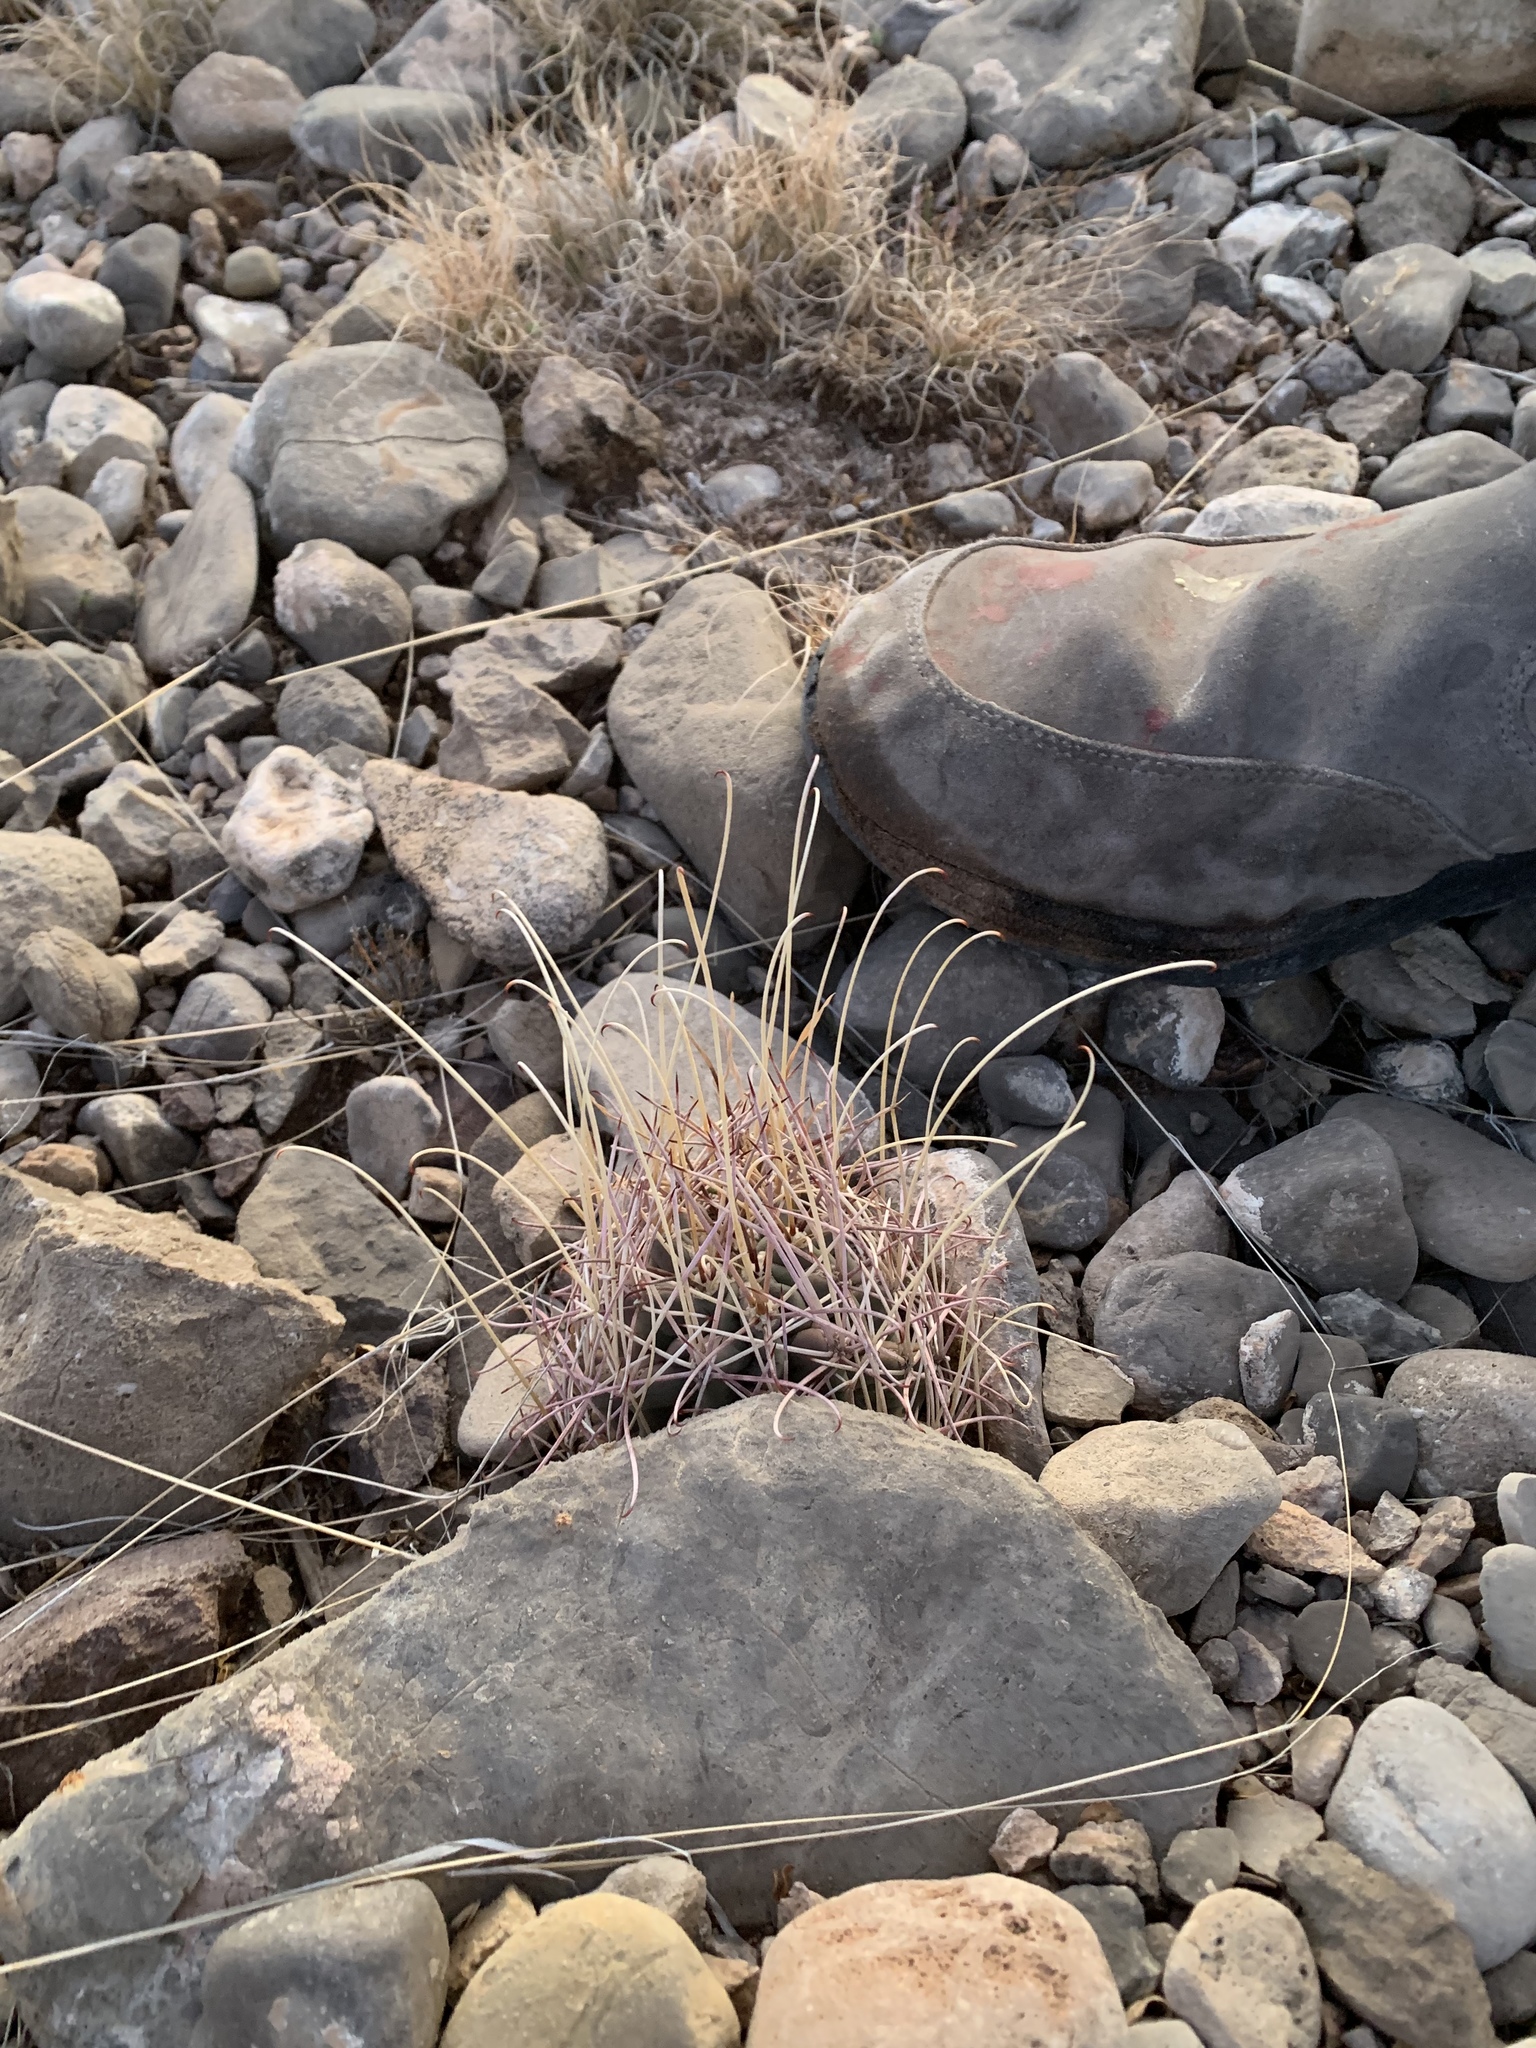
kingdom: Plantae
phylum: Tracheophyta
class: Magnoliopsida
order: Caryophyllales
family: Cactaceae
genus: Ferocactus
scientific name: Ferocactus uncinatus
